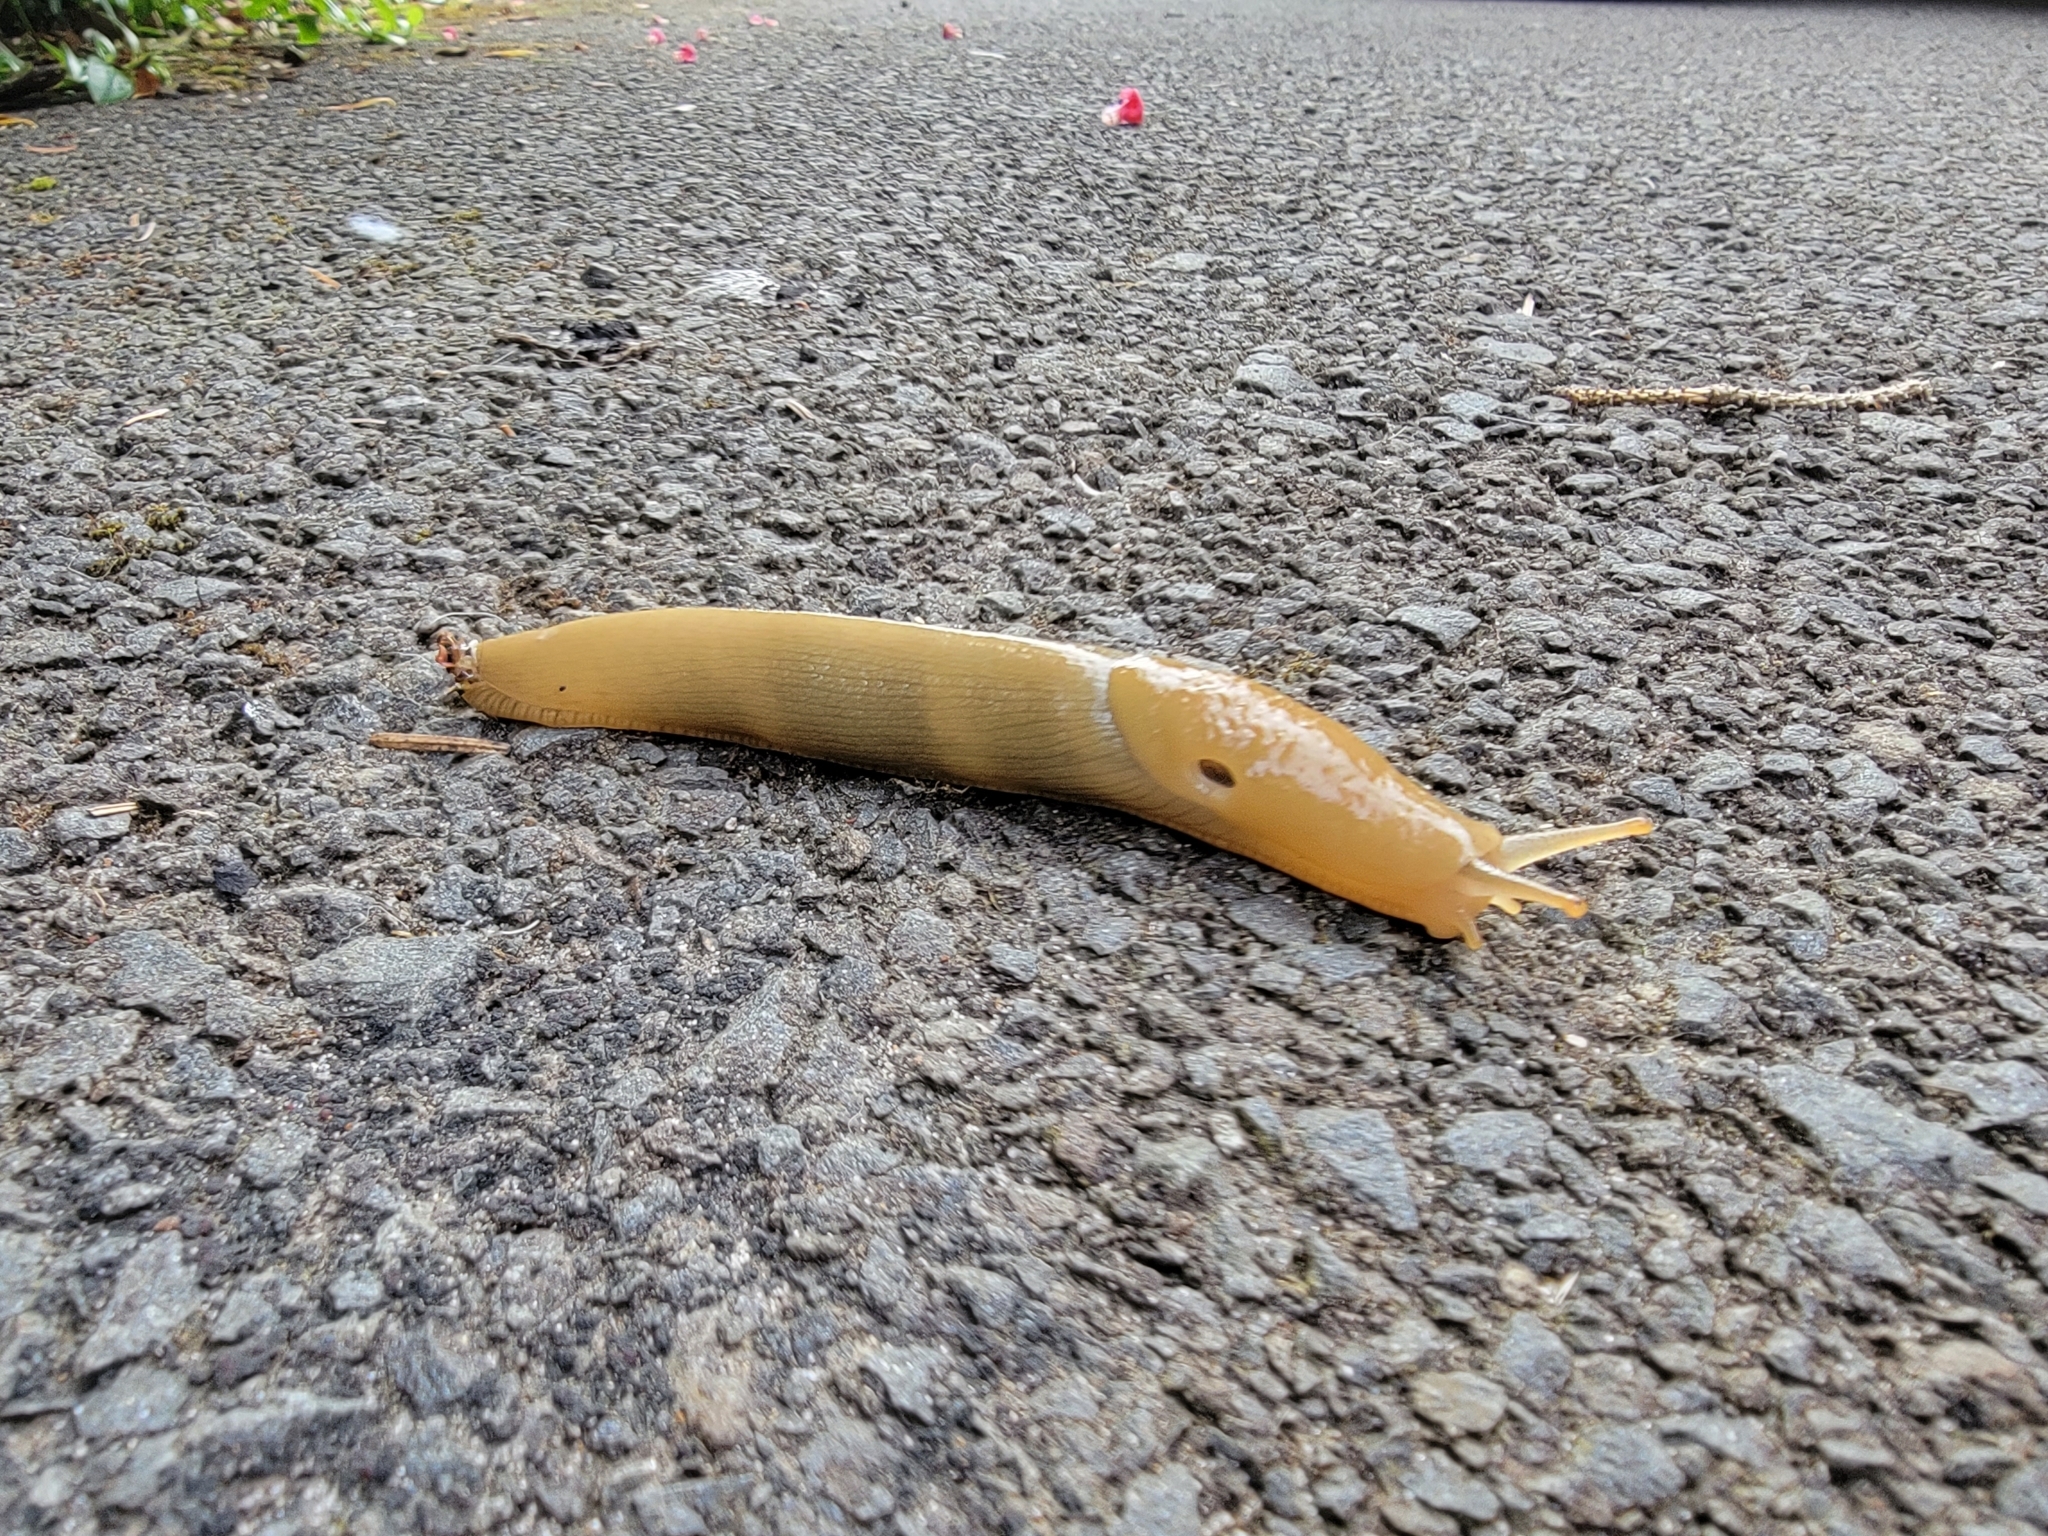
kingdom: Animalia
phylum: Mollusca
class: Gastropoda
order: Stylommatophora
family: Ariolimacidae
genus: Ariolimax
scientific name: Ariolimax columbianus
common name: Pacific banana slug
